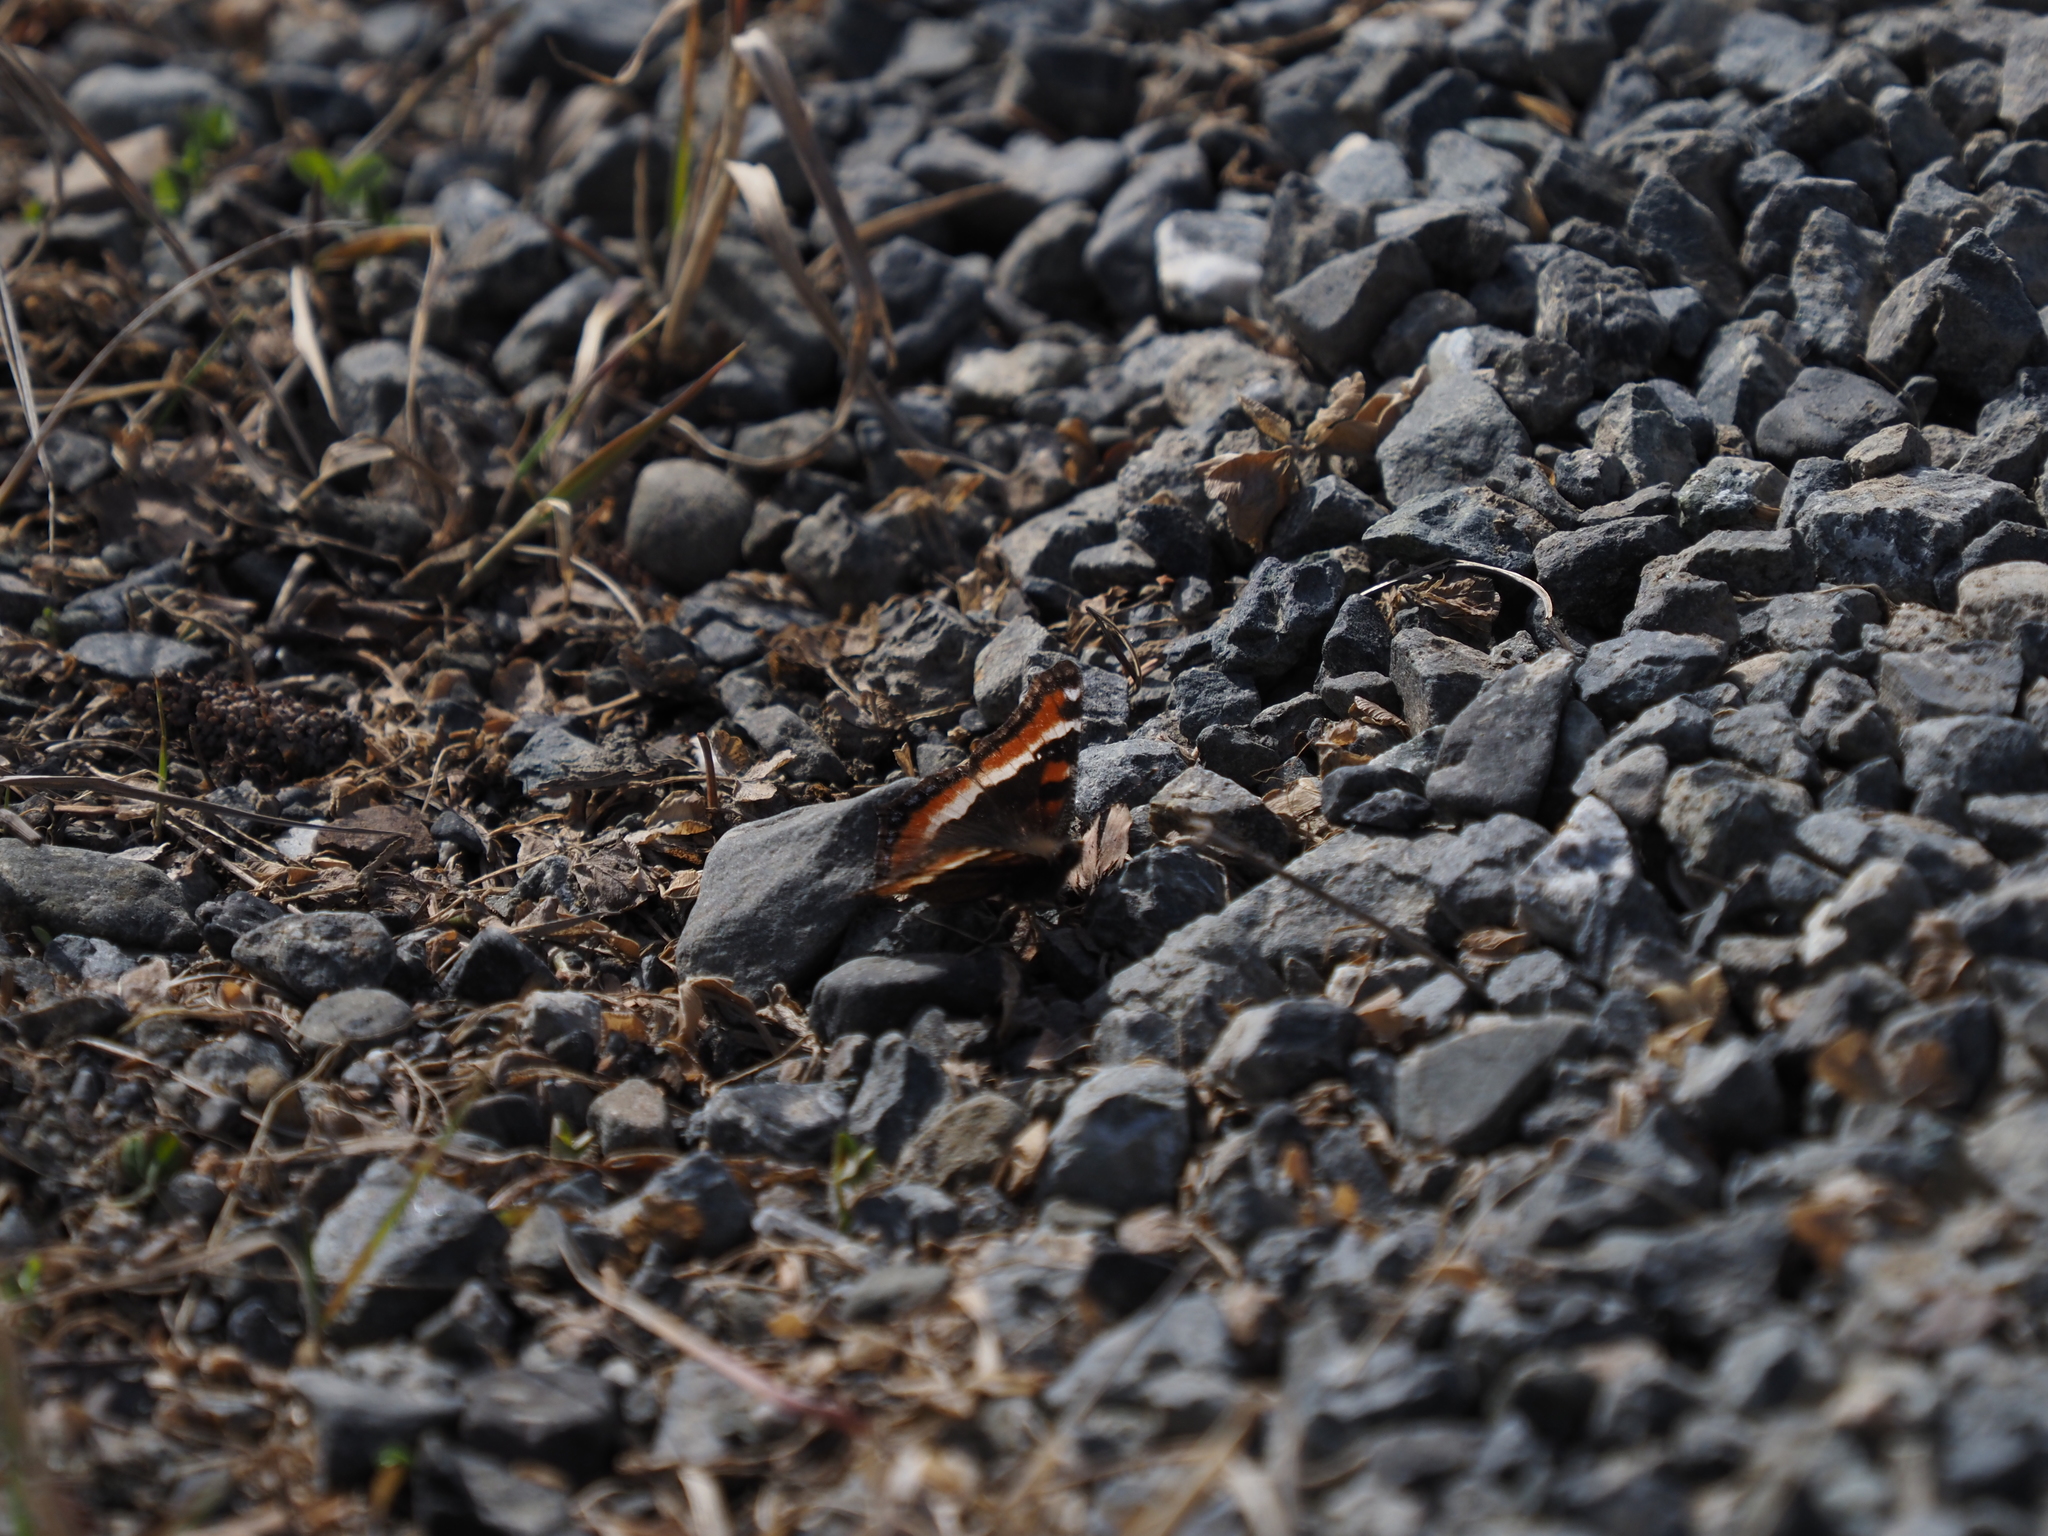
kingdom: Animalia
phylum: Arthropoda
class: Insecta
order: Lepidoptera
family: Nymphalidae
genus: Aglais
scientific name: Aglais milberti
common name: Milbert's tortoiseshell
